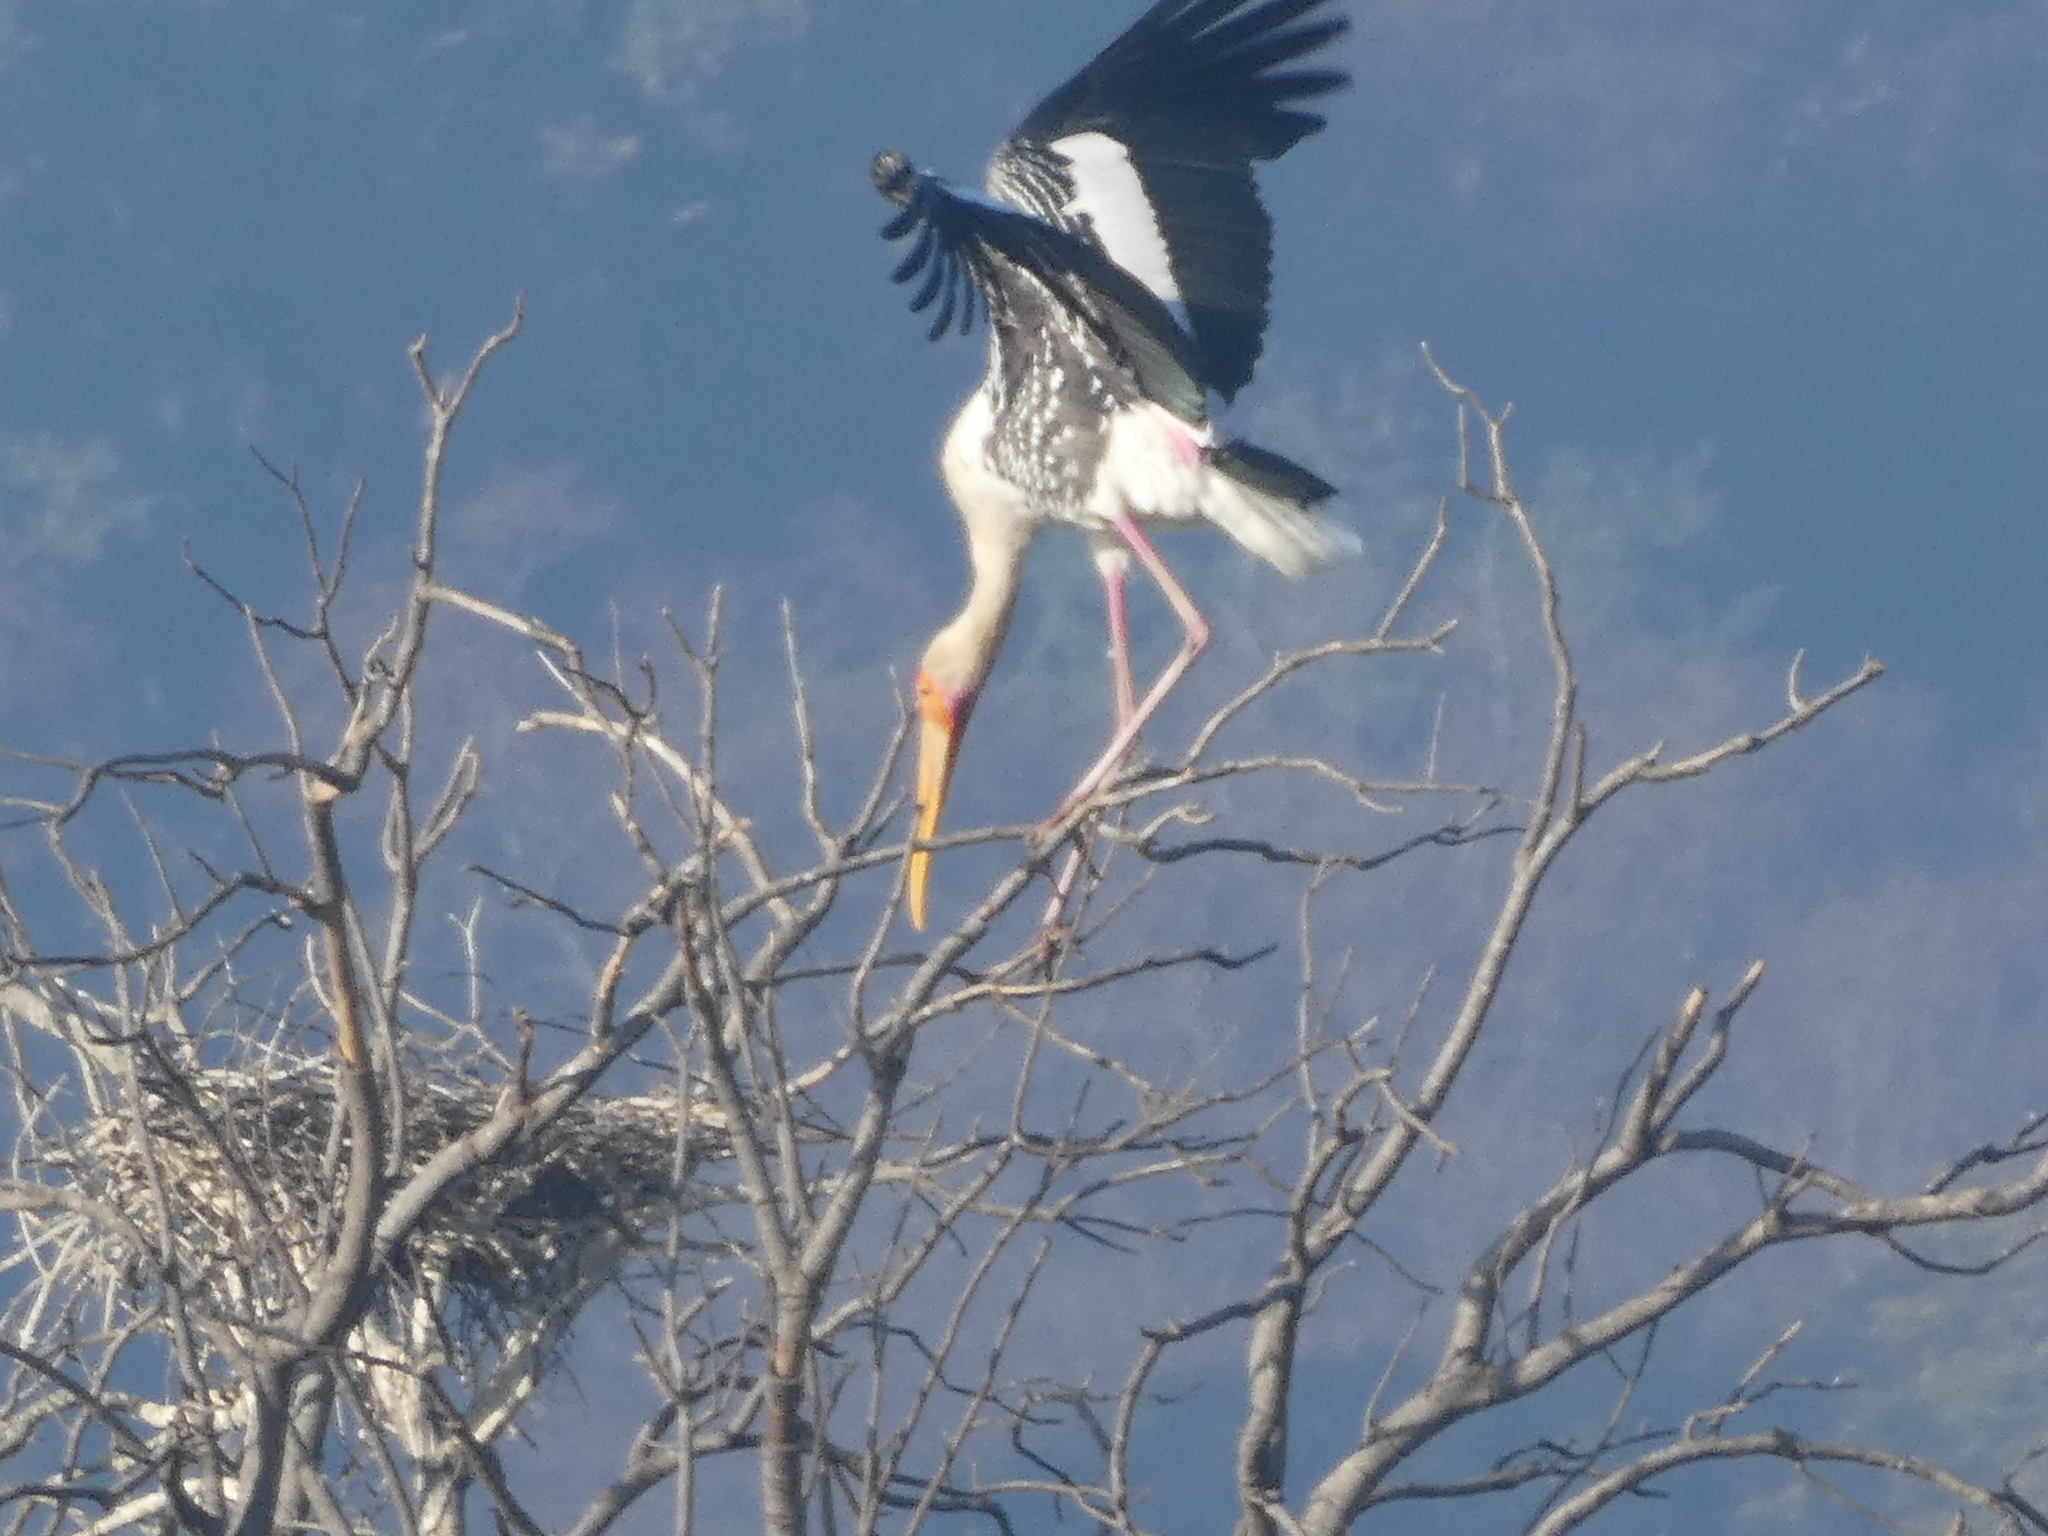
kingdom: Animalia
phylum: Chordata
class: Aves
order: Ciconiiformes
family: Ciconiidae
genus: Mycteria
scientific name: Mycteria leucocephala
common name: Painted stork
